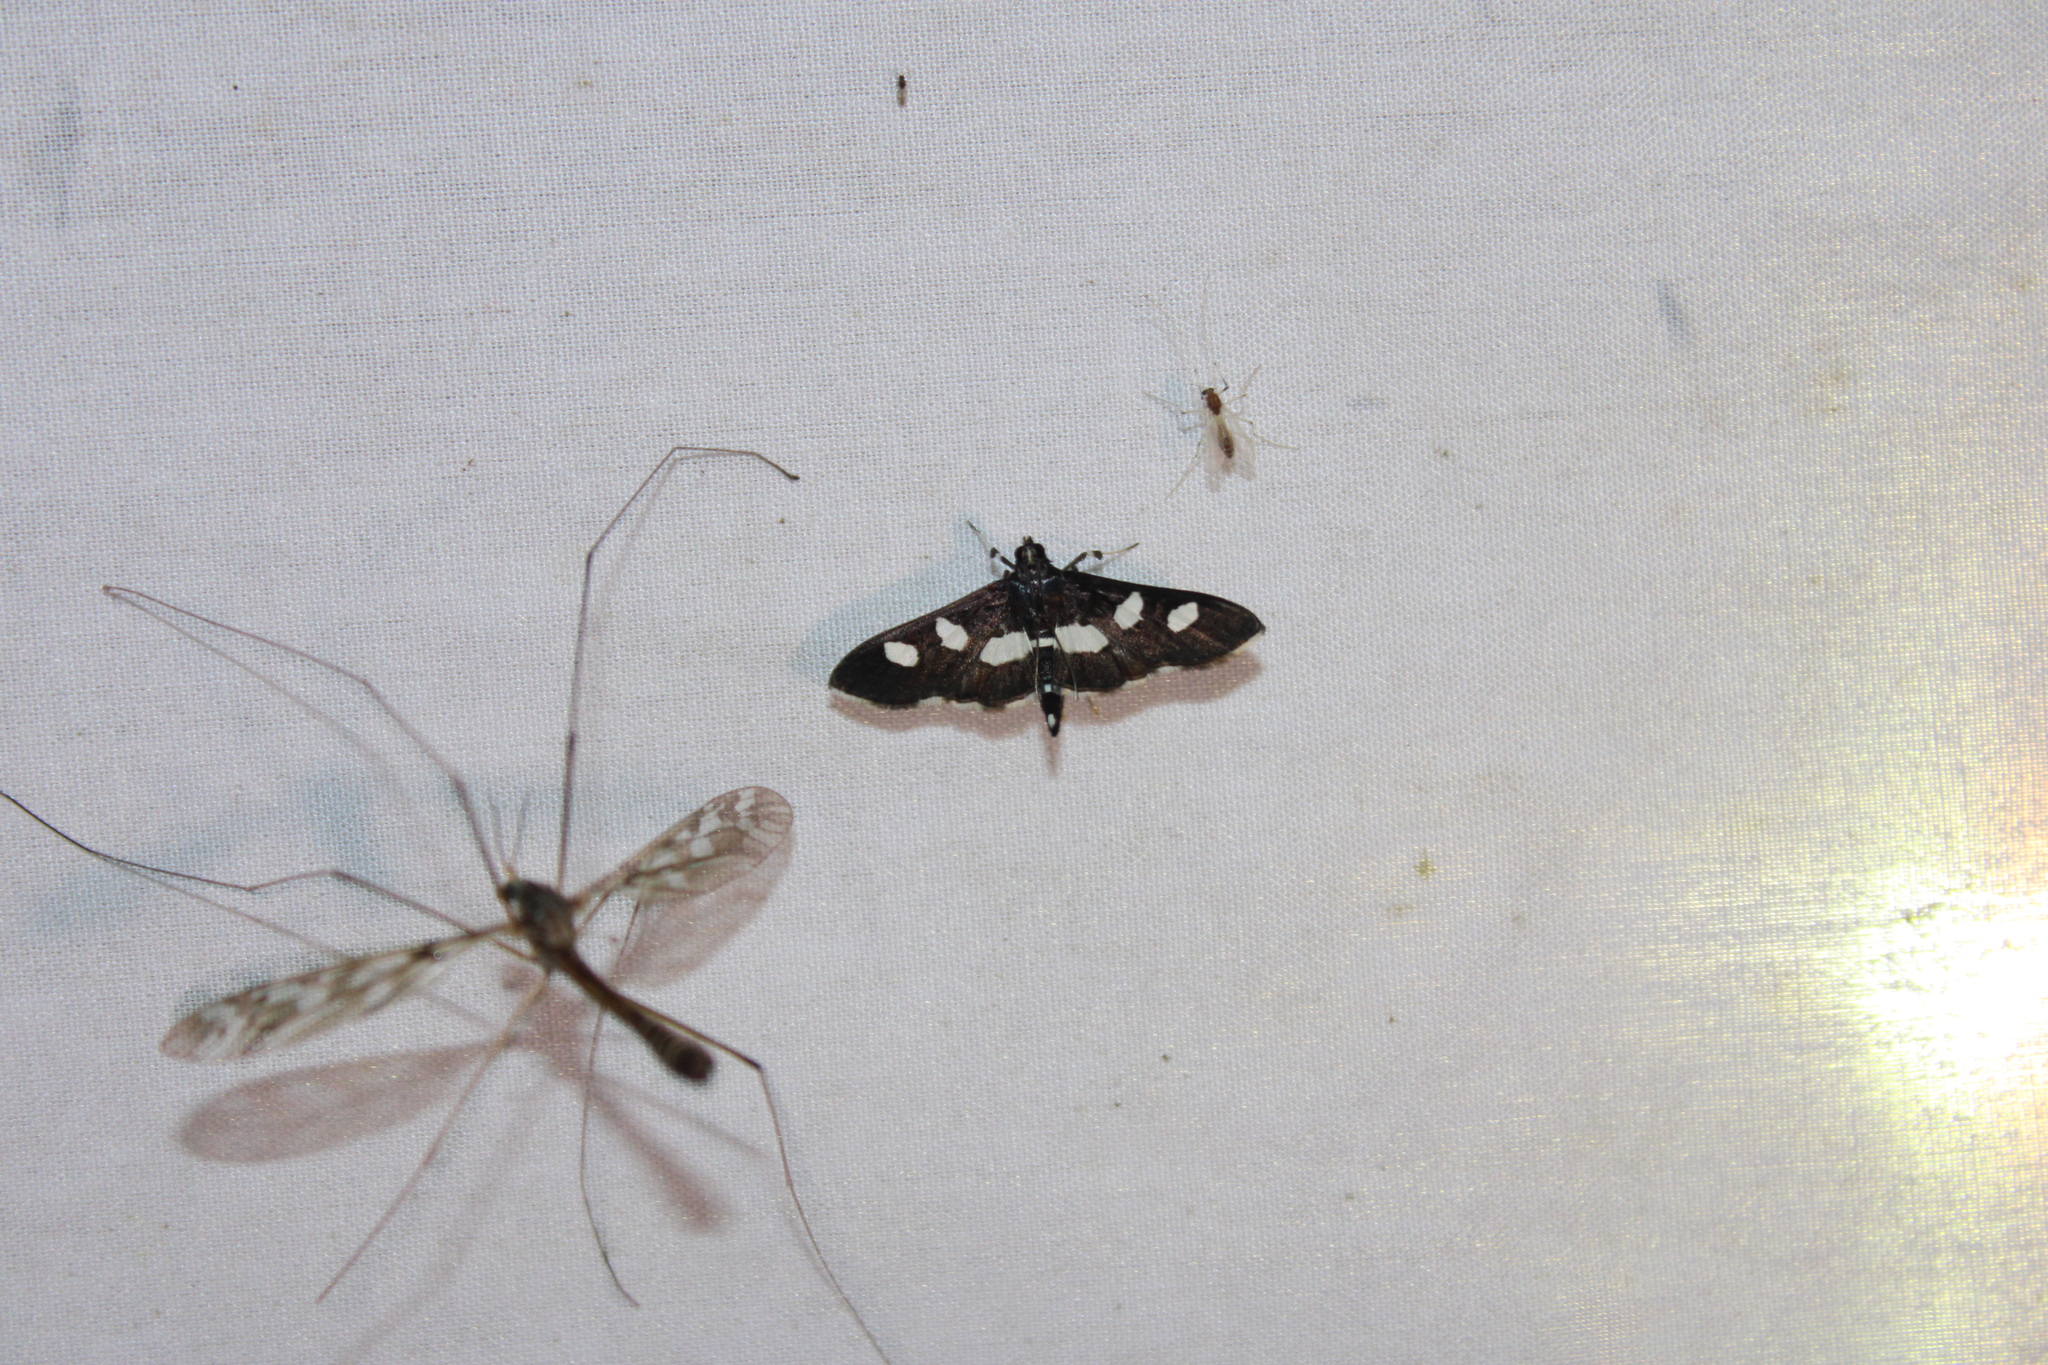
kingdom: Animalia
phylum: Arthropoda
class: Insecta
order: Lepidoptera
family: Crambidae
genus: Desmia
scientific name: Desmia
